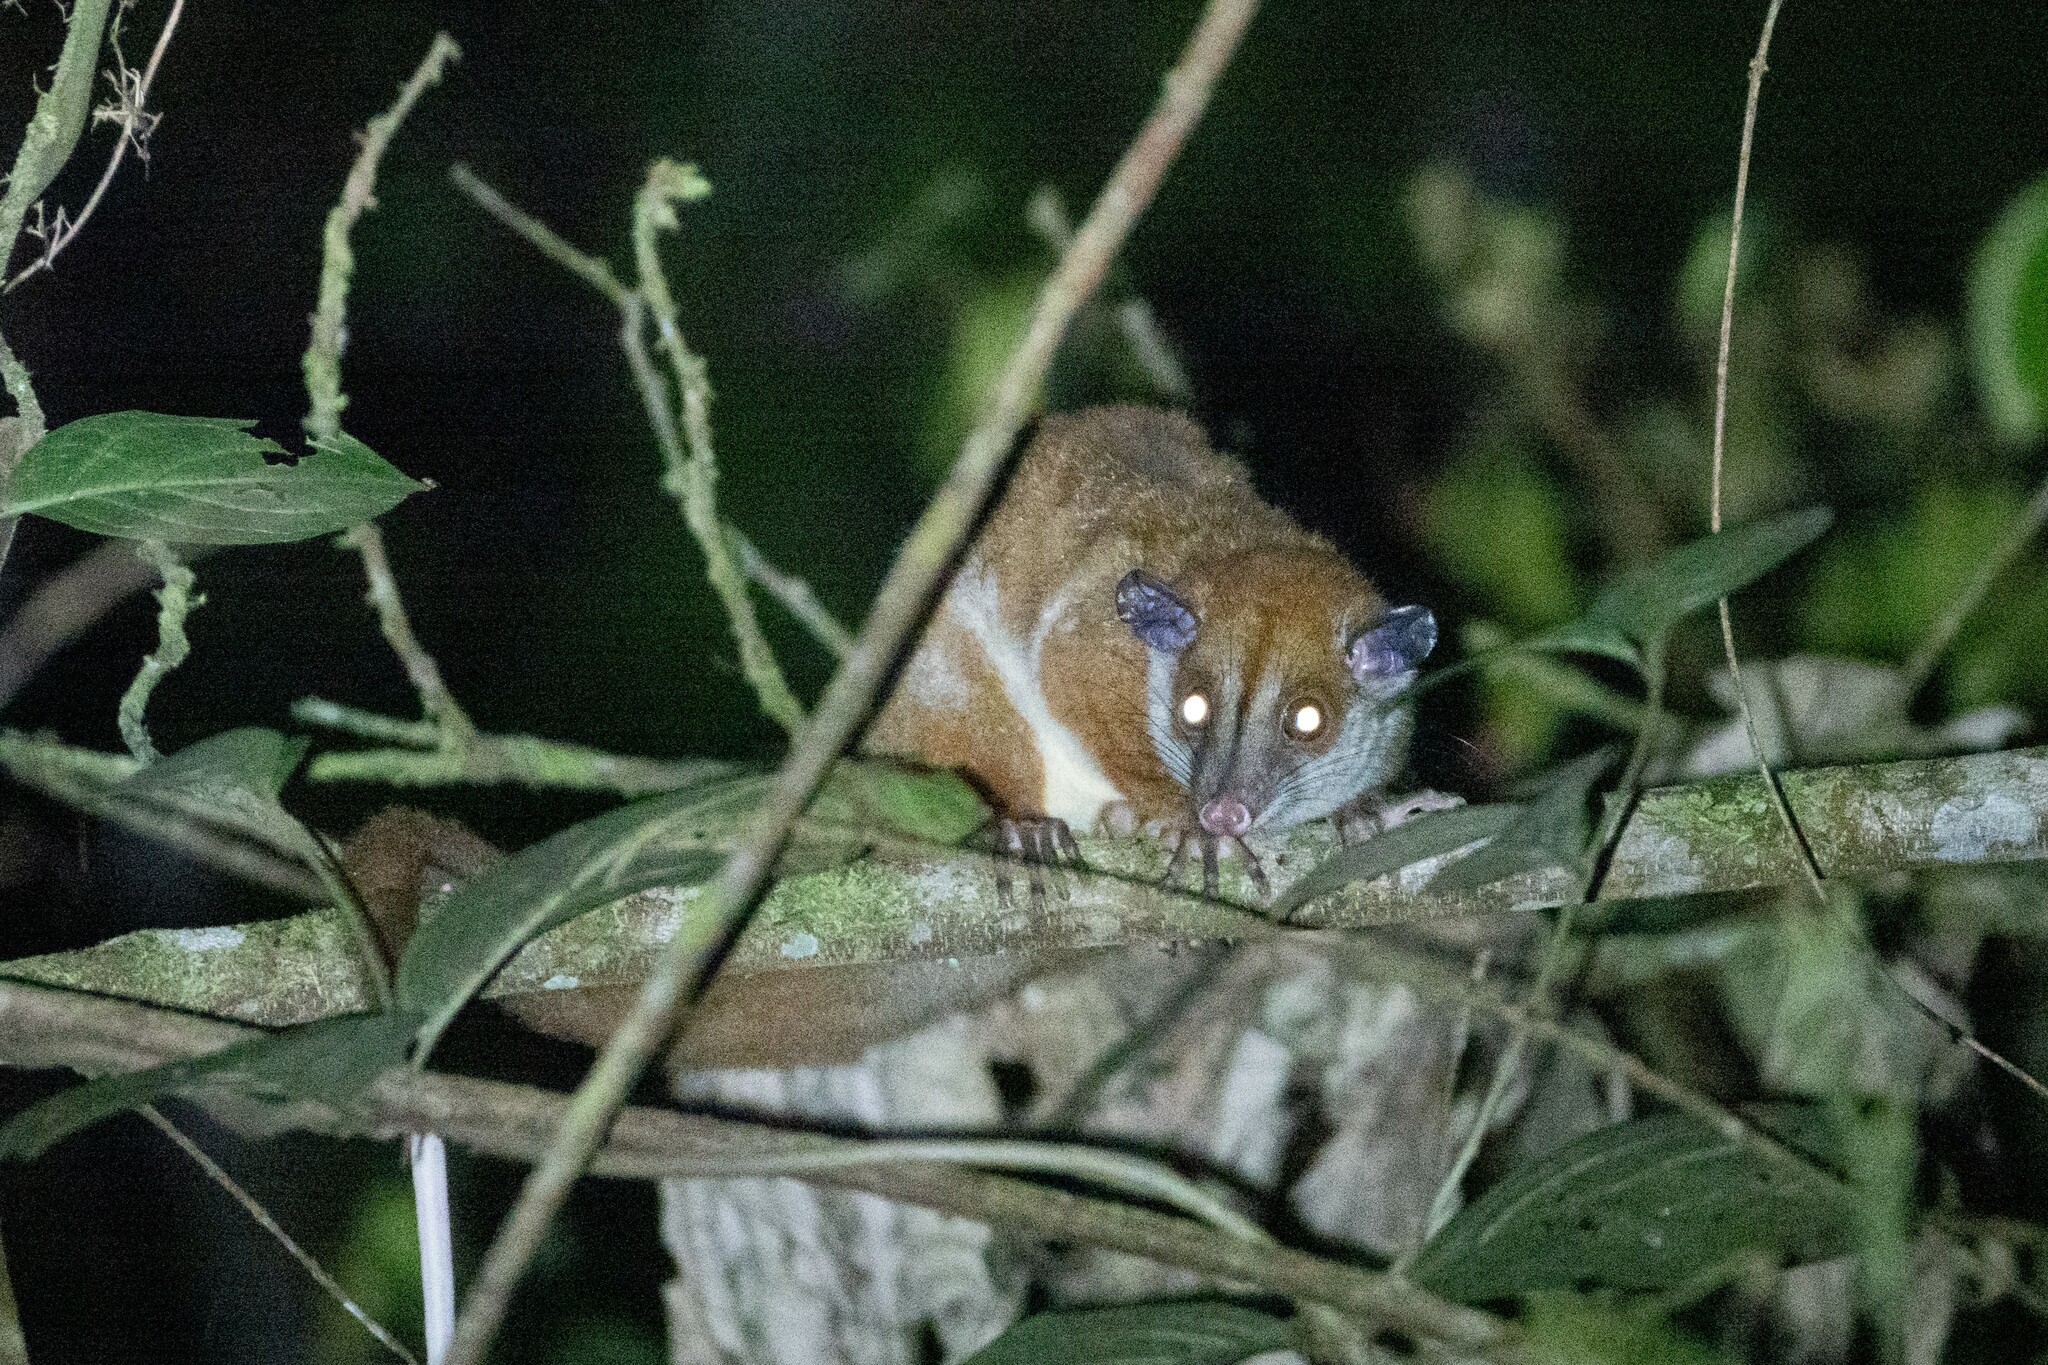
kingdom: Animalia
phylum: Chordata
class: Mammalia
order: Didelphimorphia
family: Didelphidae
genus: Caluromys
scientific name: Caluromys lanatus
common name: Brown-eared woolly opossum
